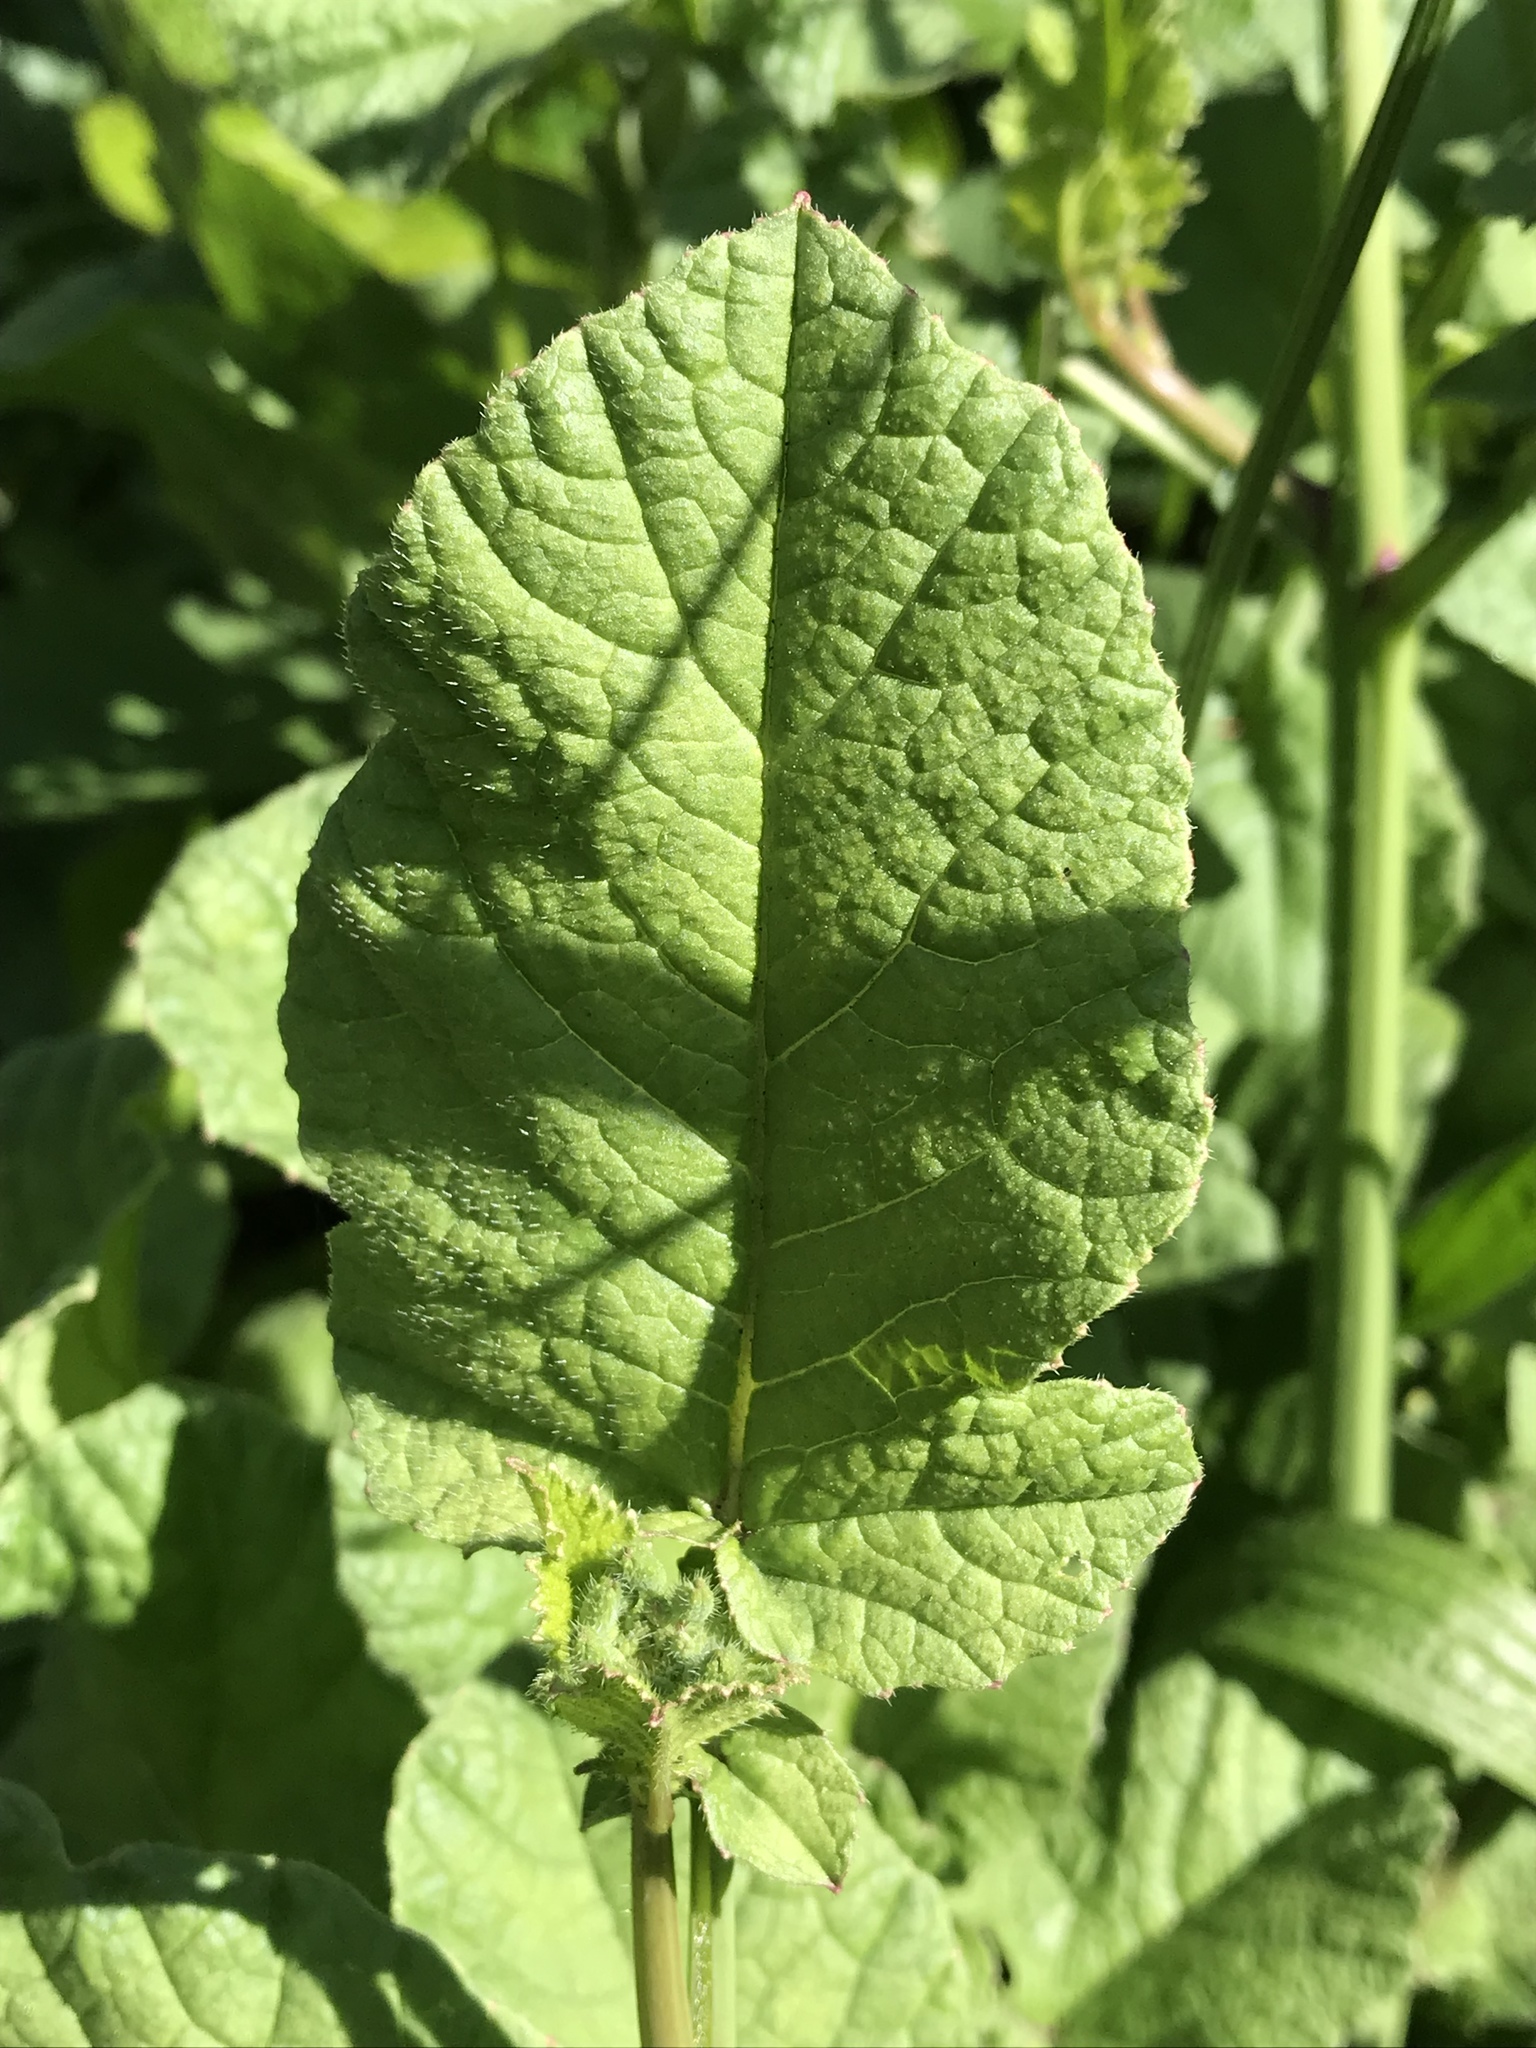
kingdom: Plantae
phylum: Tracheophyta
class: Magnoliopsida
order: Brassicales
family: Brassicaceae
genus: Raphanus
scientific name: Raphanus sativus
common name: Cultivated radish
